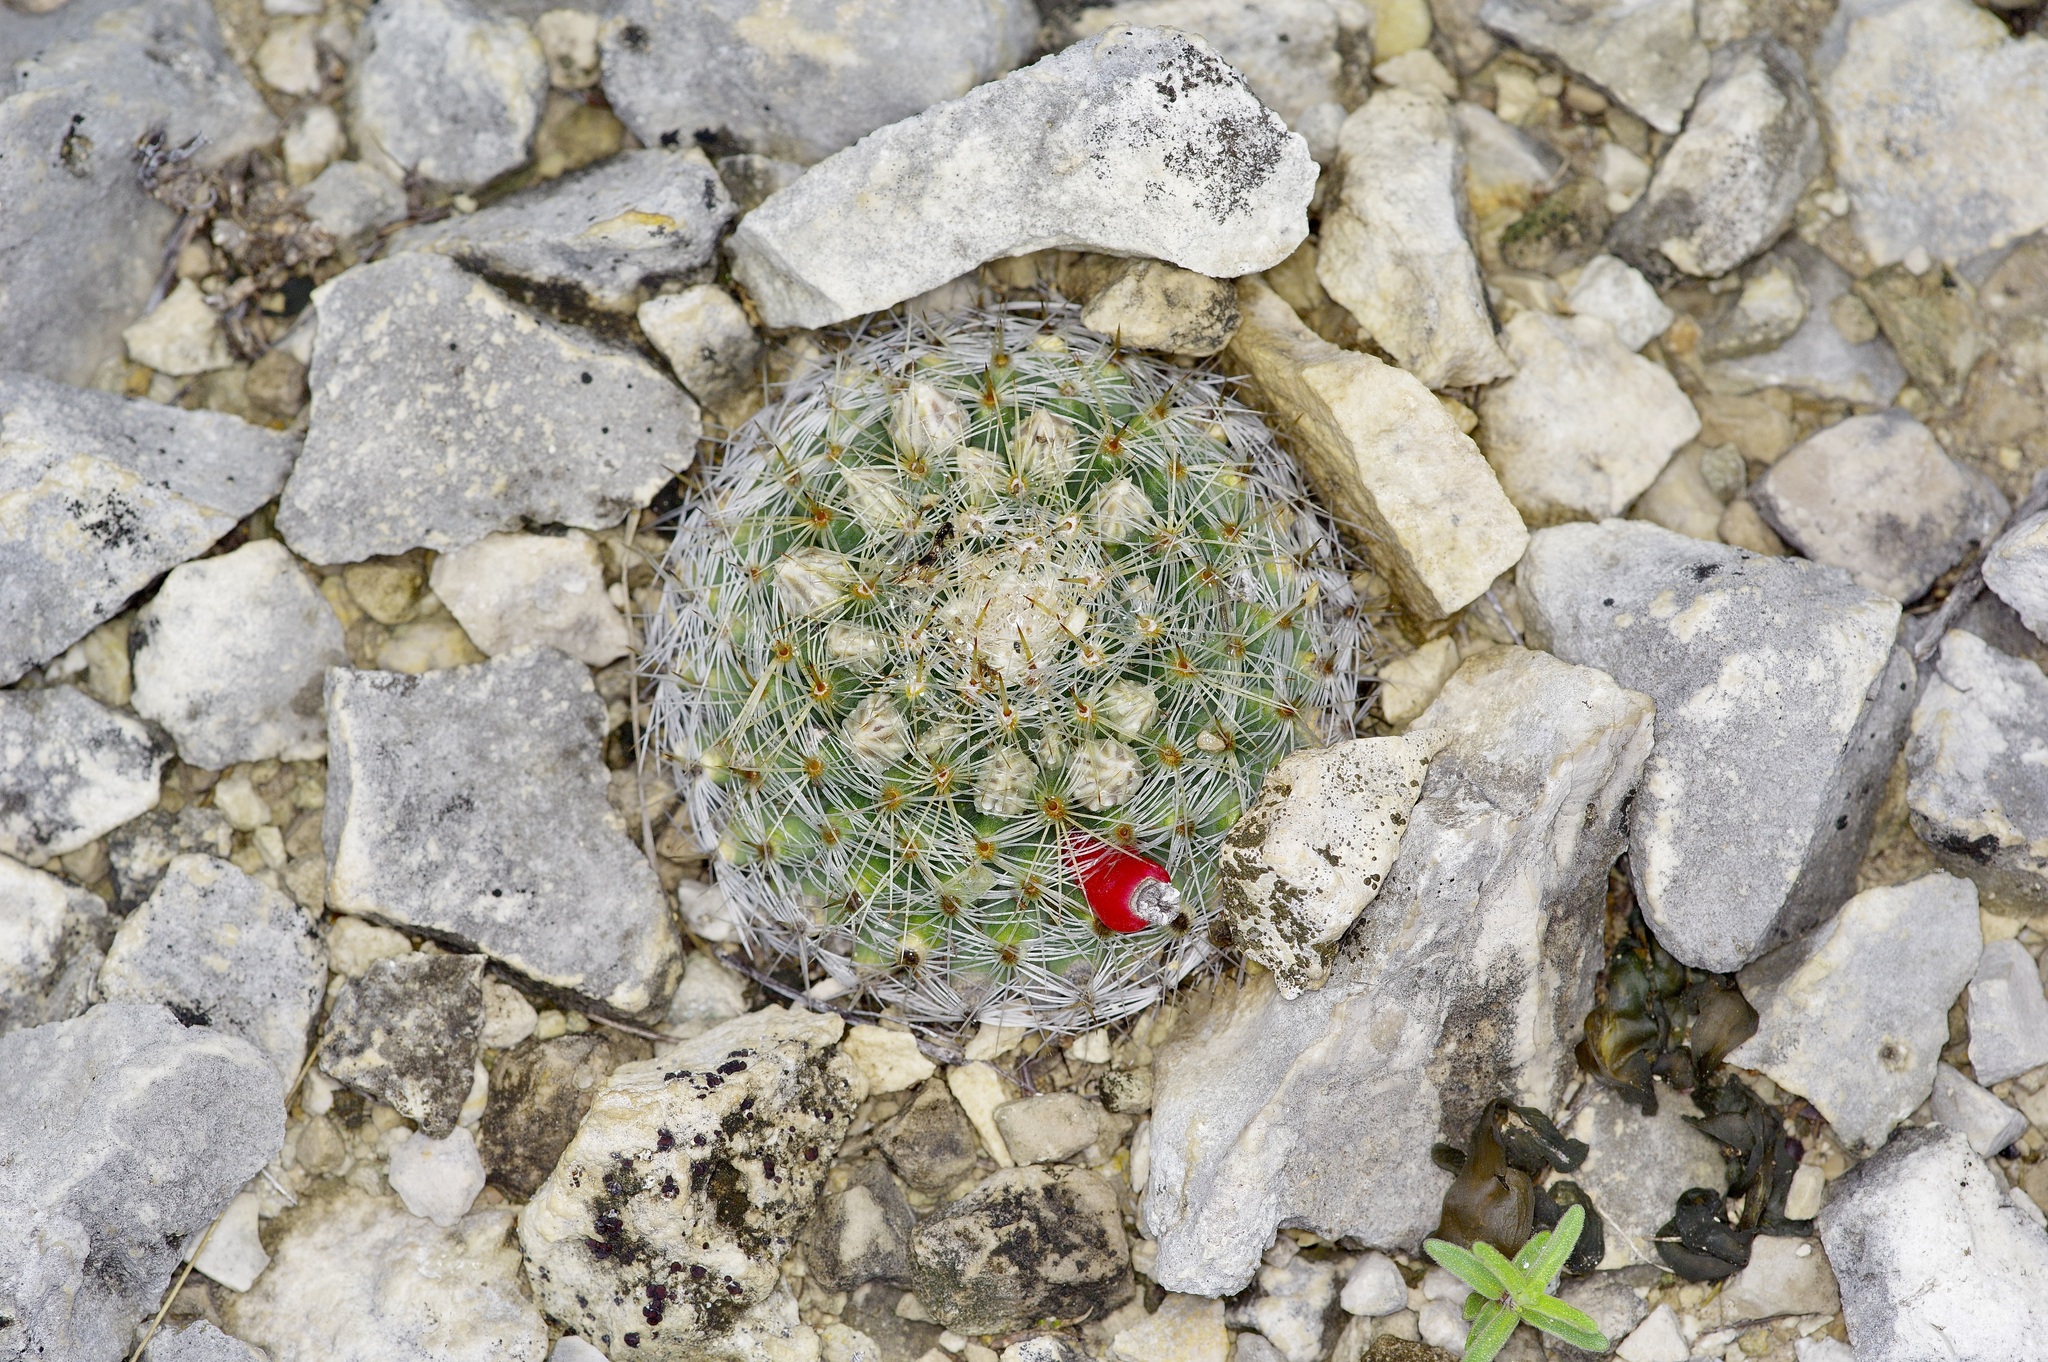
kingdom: Plantae
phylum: Tracheophyta
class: Magnoliopsida
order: Caryophyllales
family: Cactaceae
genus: Mammillaria
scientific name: Mammillaria heyderi
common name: Little nipple cactus
